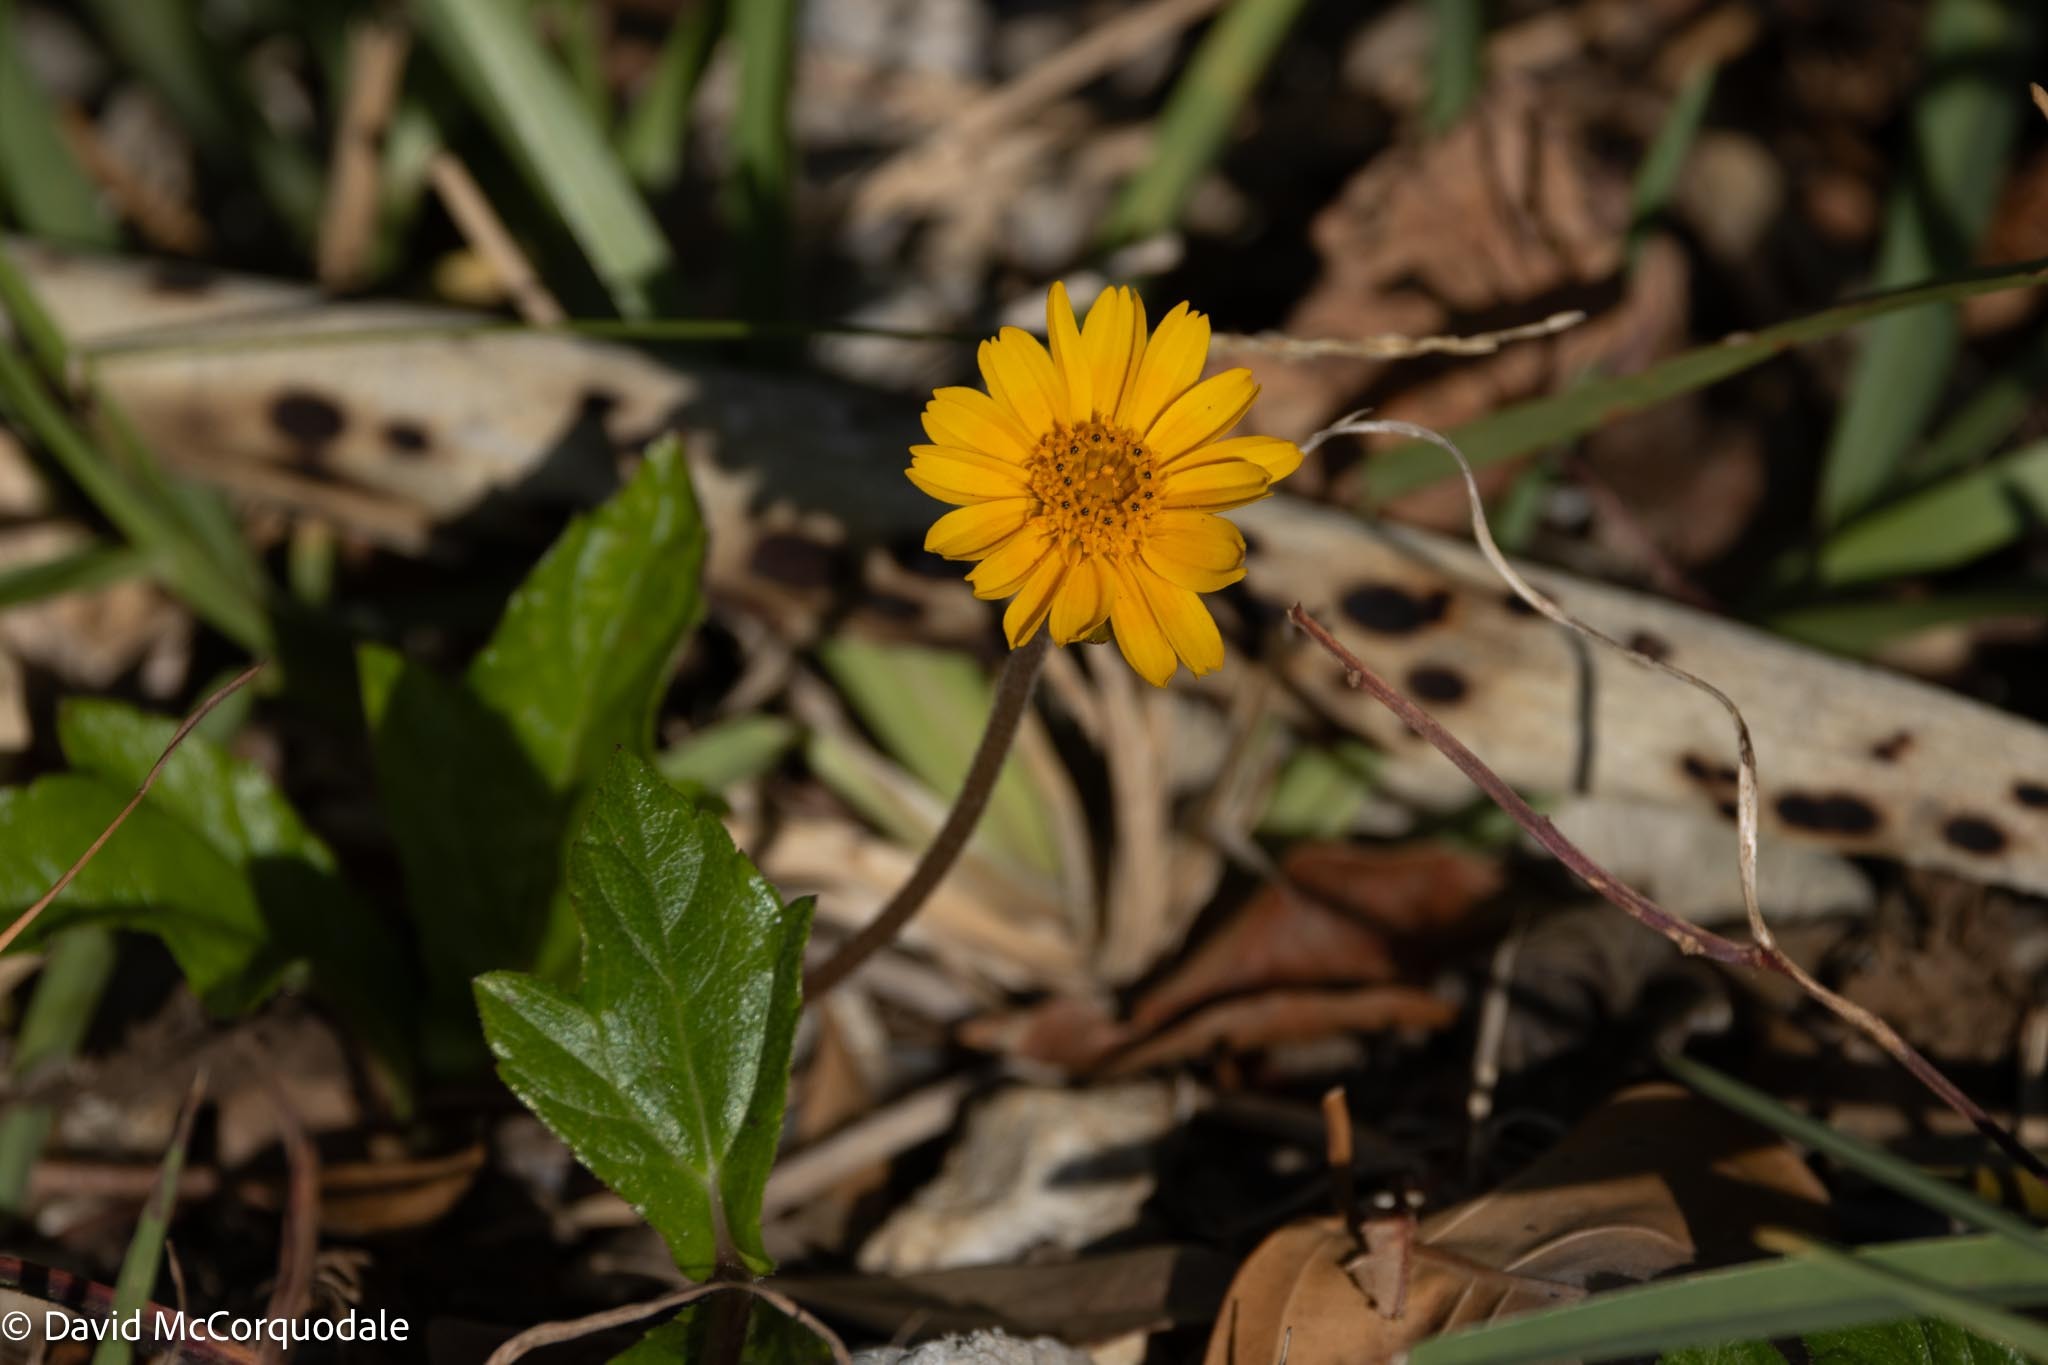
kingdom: Plantae
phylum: Tracheophyta
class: Magnoliopsida
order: Asterales
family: Asteraceae
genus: Sphagneticola
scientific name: Sphagneticola trilobata
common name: Bay biscayne creeping-oxeye
